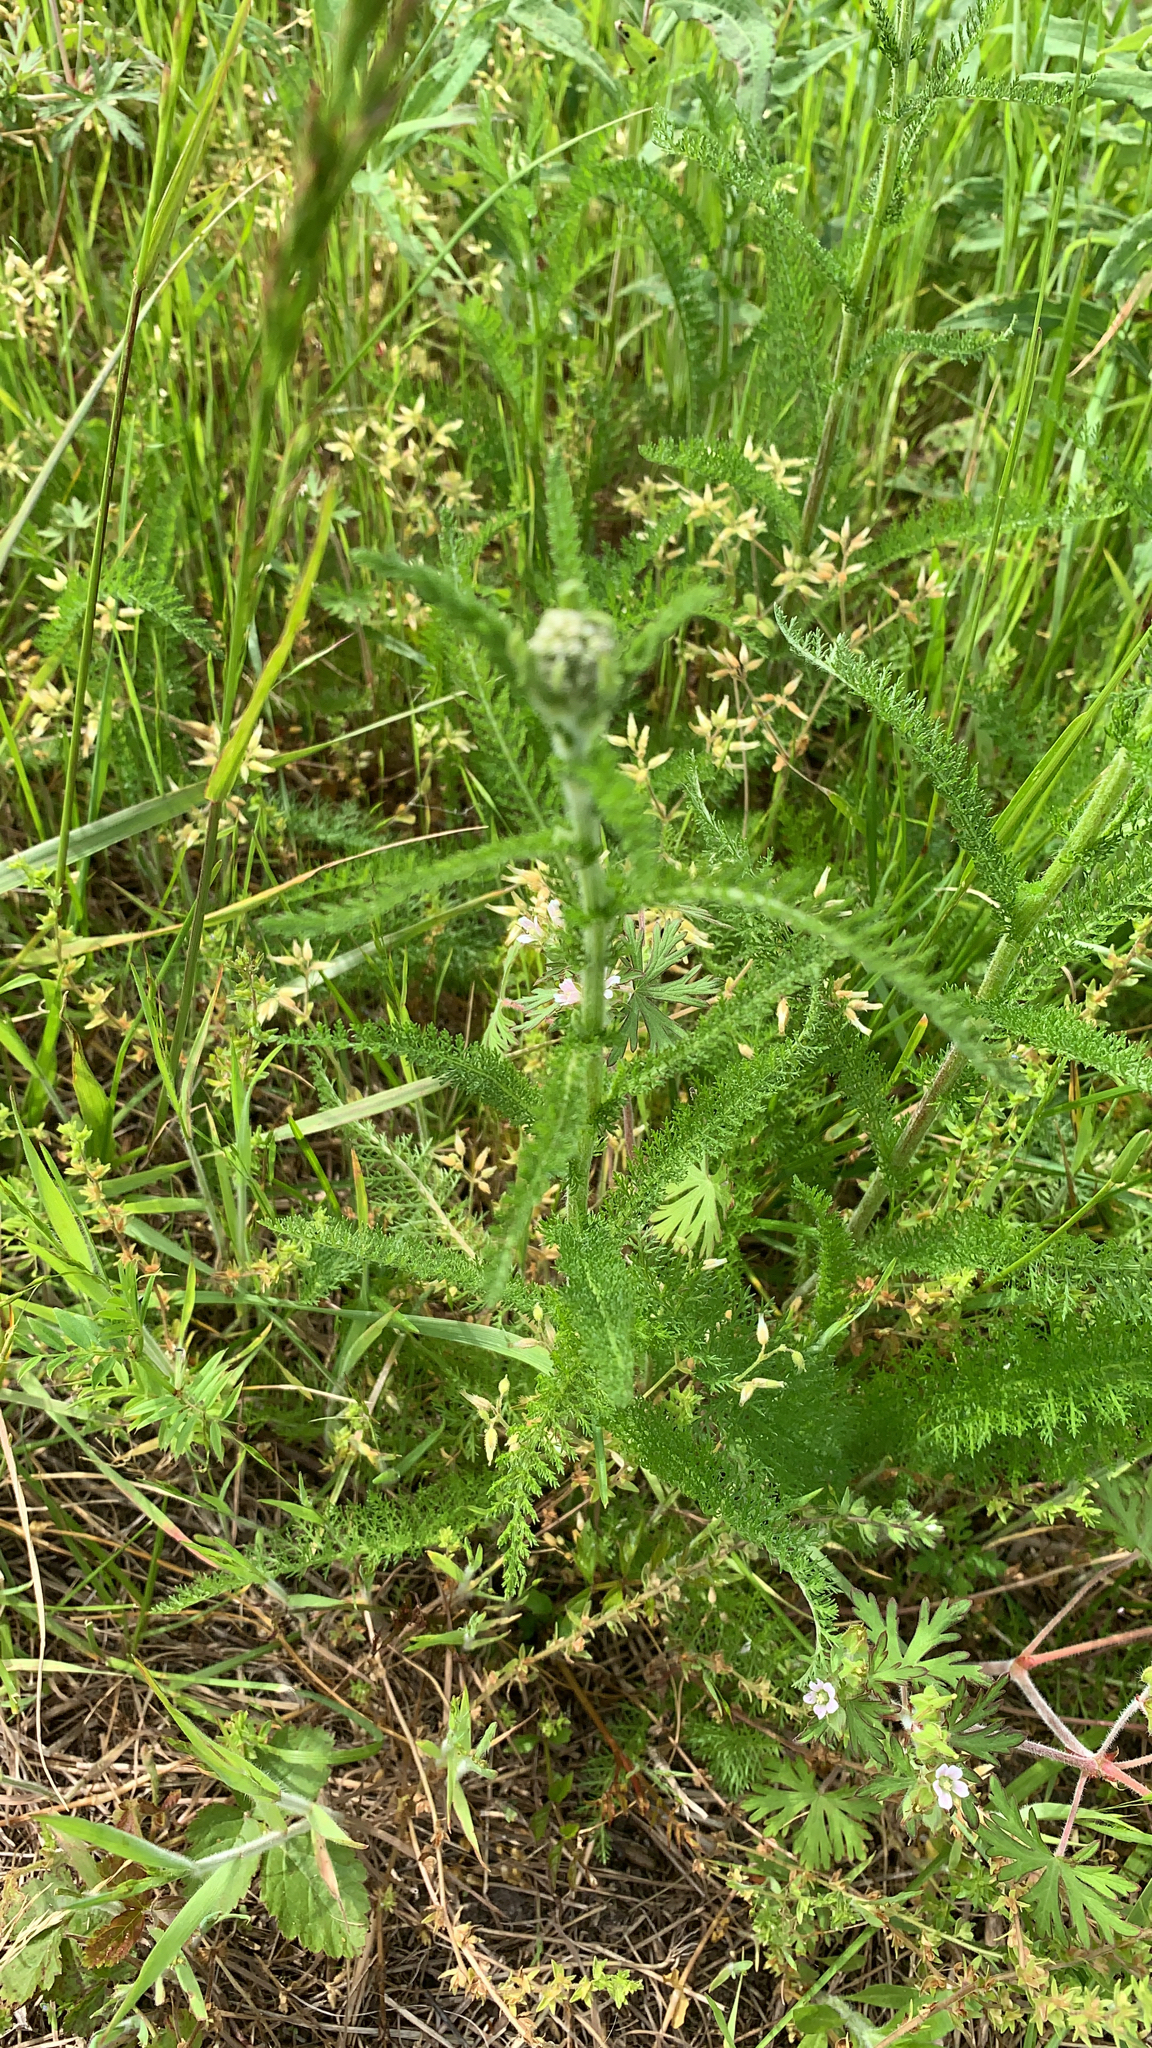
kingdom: Plantae
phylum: Tracheophyta
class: Magnoliopsida
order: Asterales
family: Asteraceae
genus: Achillea
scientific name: Achillea millefolium
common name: Yarrow
